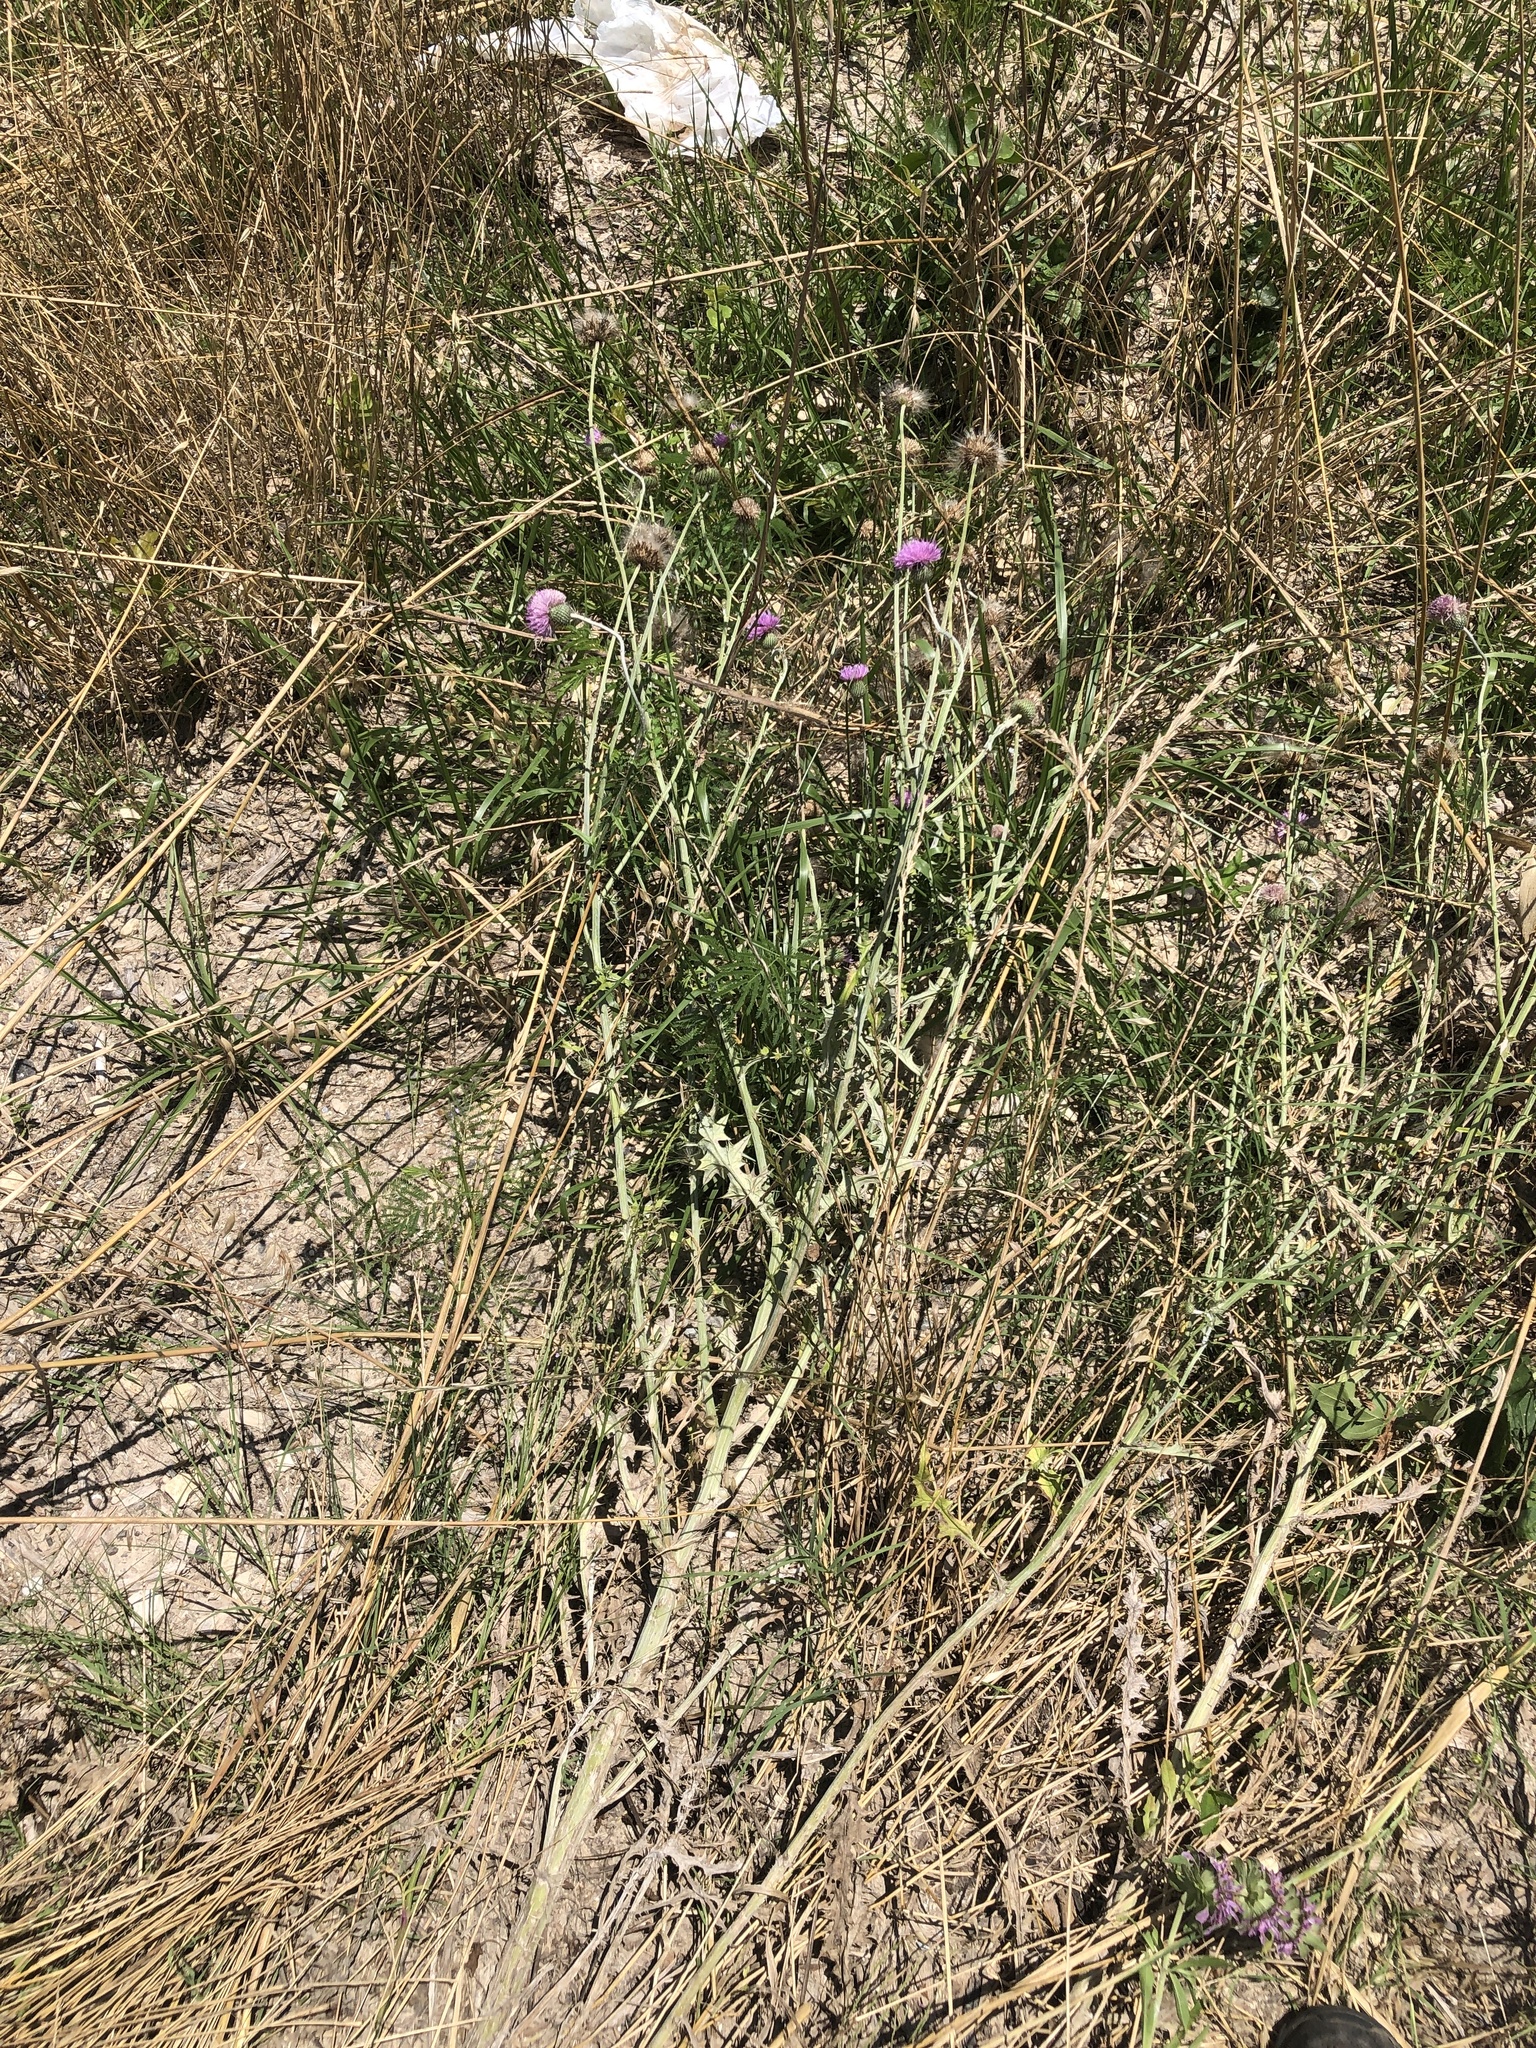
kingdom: Plantae
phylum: Tracheophyta
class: Magnoliopsida
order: Asterales
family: Asteraceae
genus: Cirsium
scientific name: Cirsium texanum
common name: Texas purple thistle
